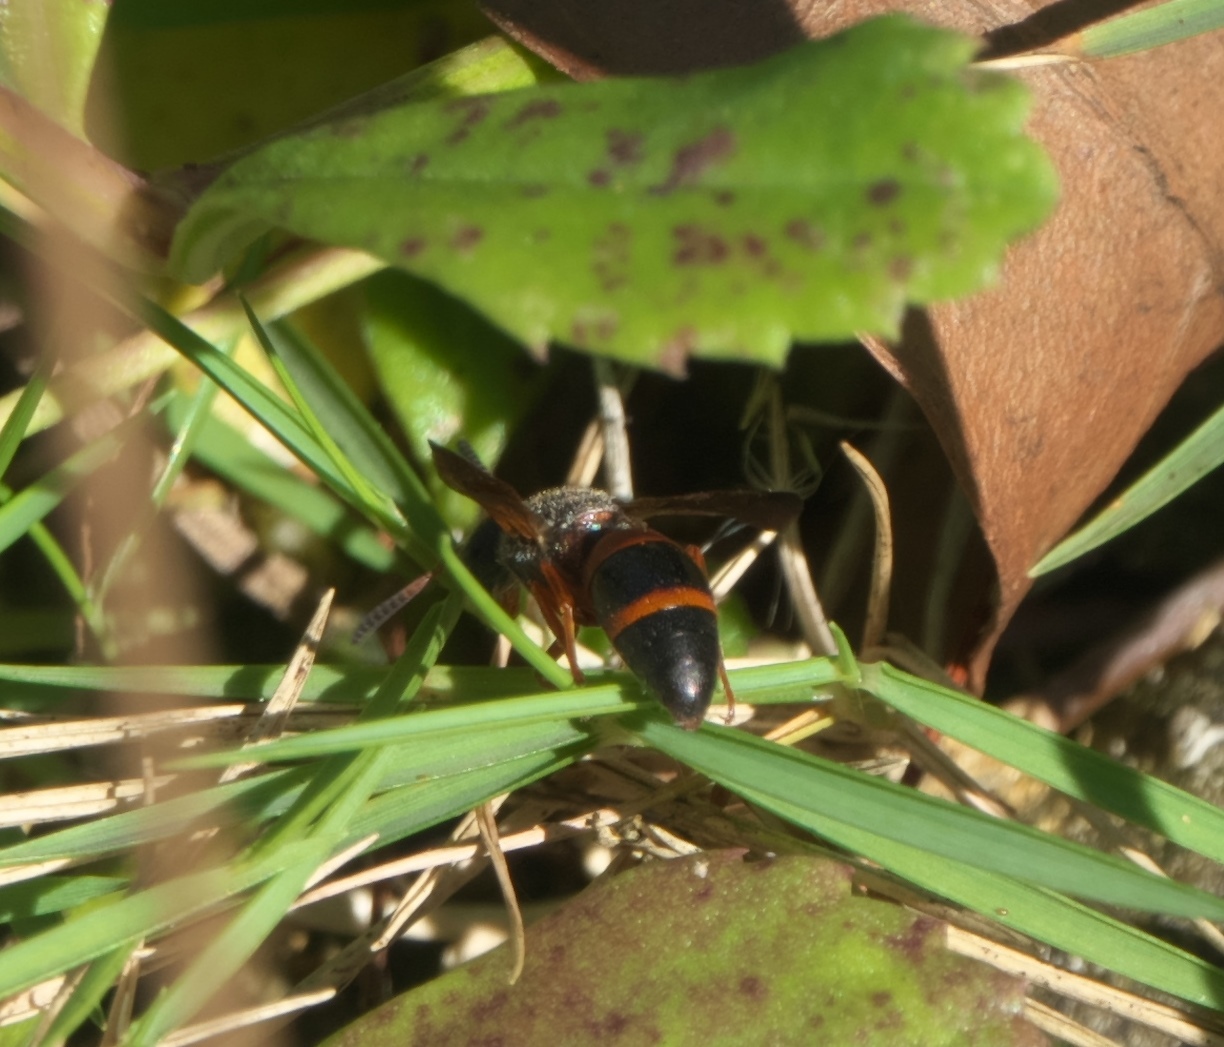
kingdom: Animalia
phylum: Arthropoda
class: Insecta
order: Hymenoptera
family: Eumenidae
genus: Pachodynerus
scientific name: Pachodynerus erynnis
